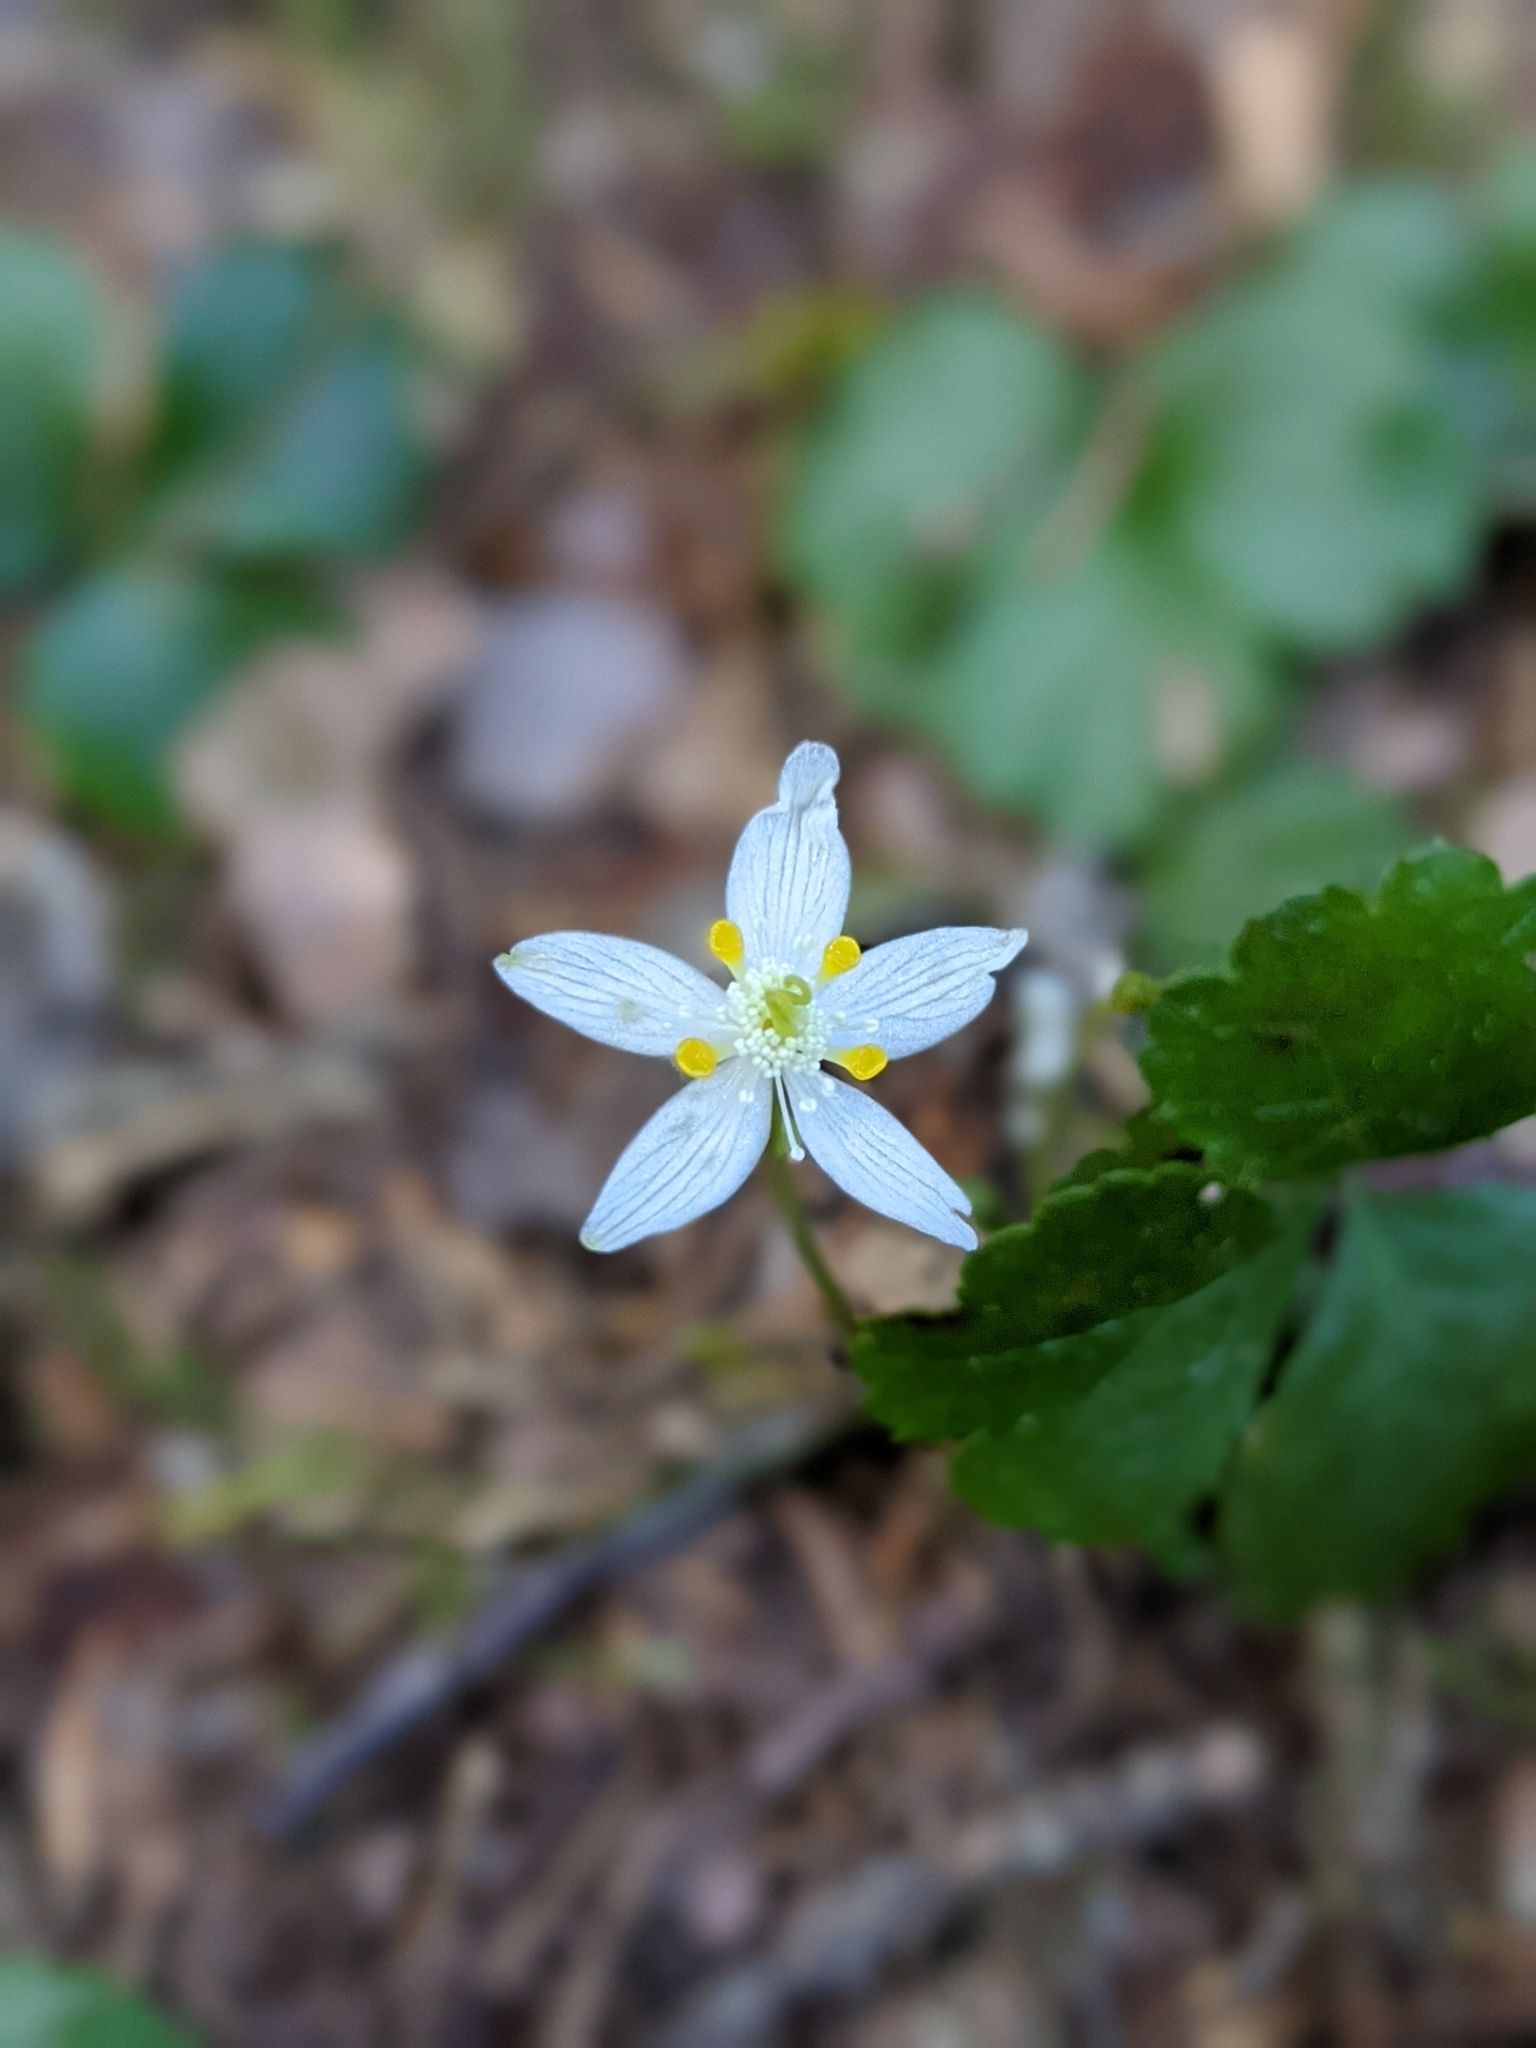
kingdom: Plantae
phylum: Tracheophyta
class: Magnoliopsida
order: Ranunculales
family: Ranunculaceae
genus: Coptis
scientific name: Coptis trifolia
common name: Canker-root
